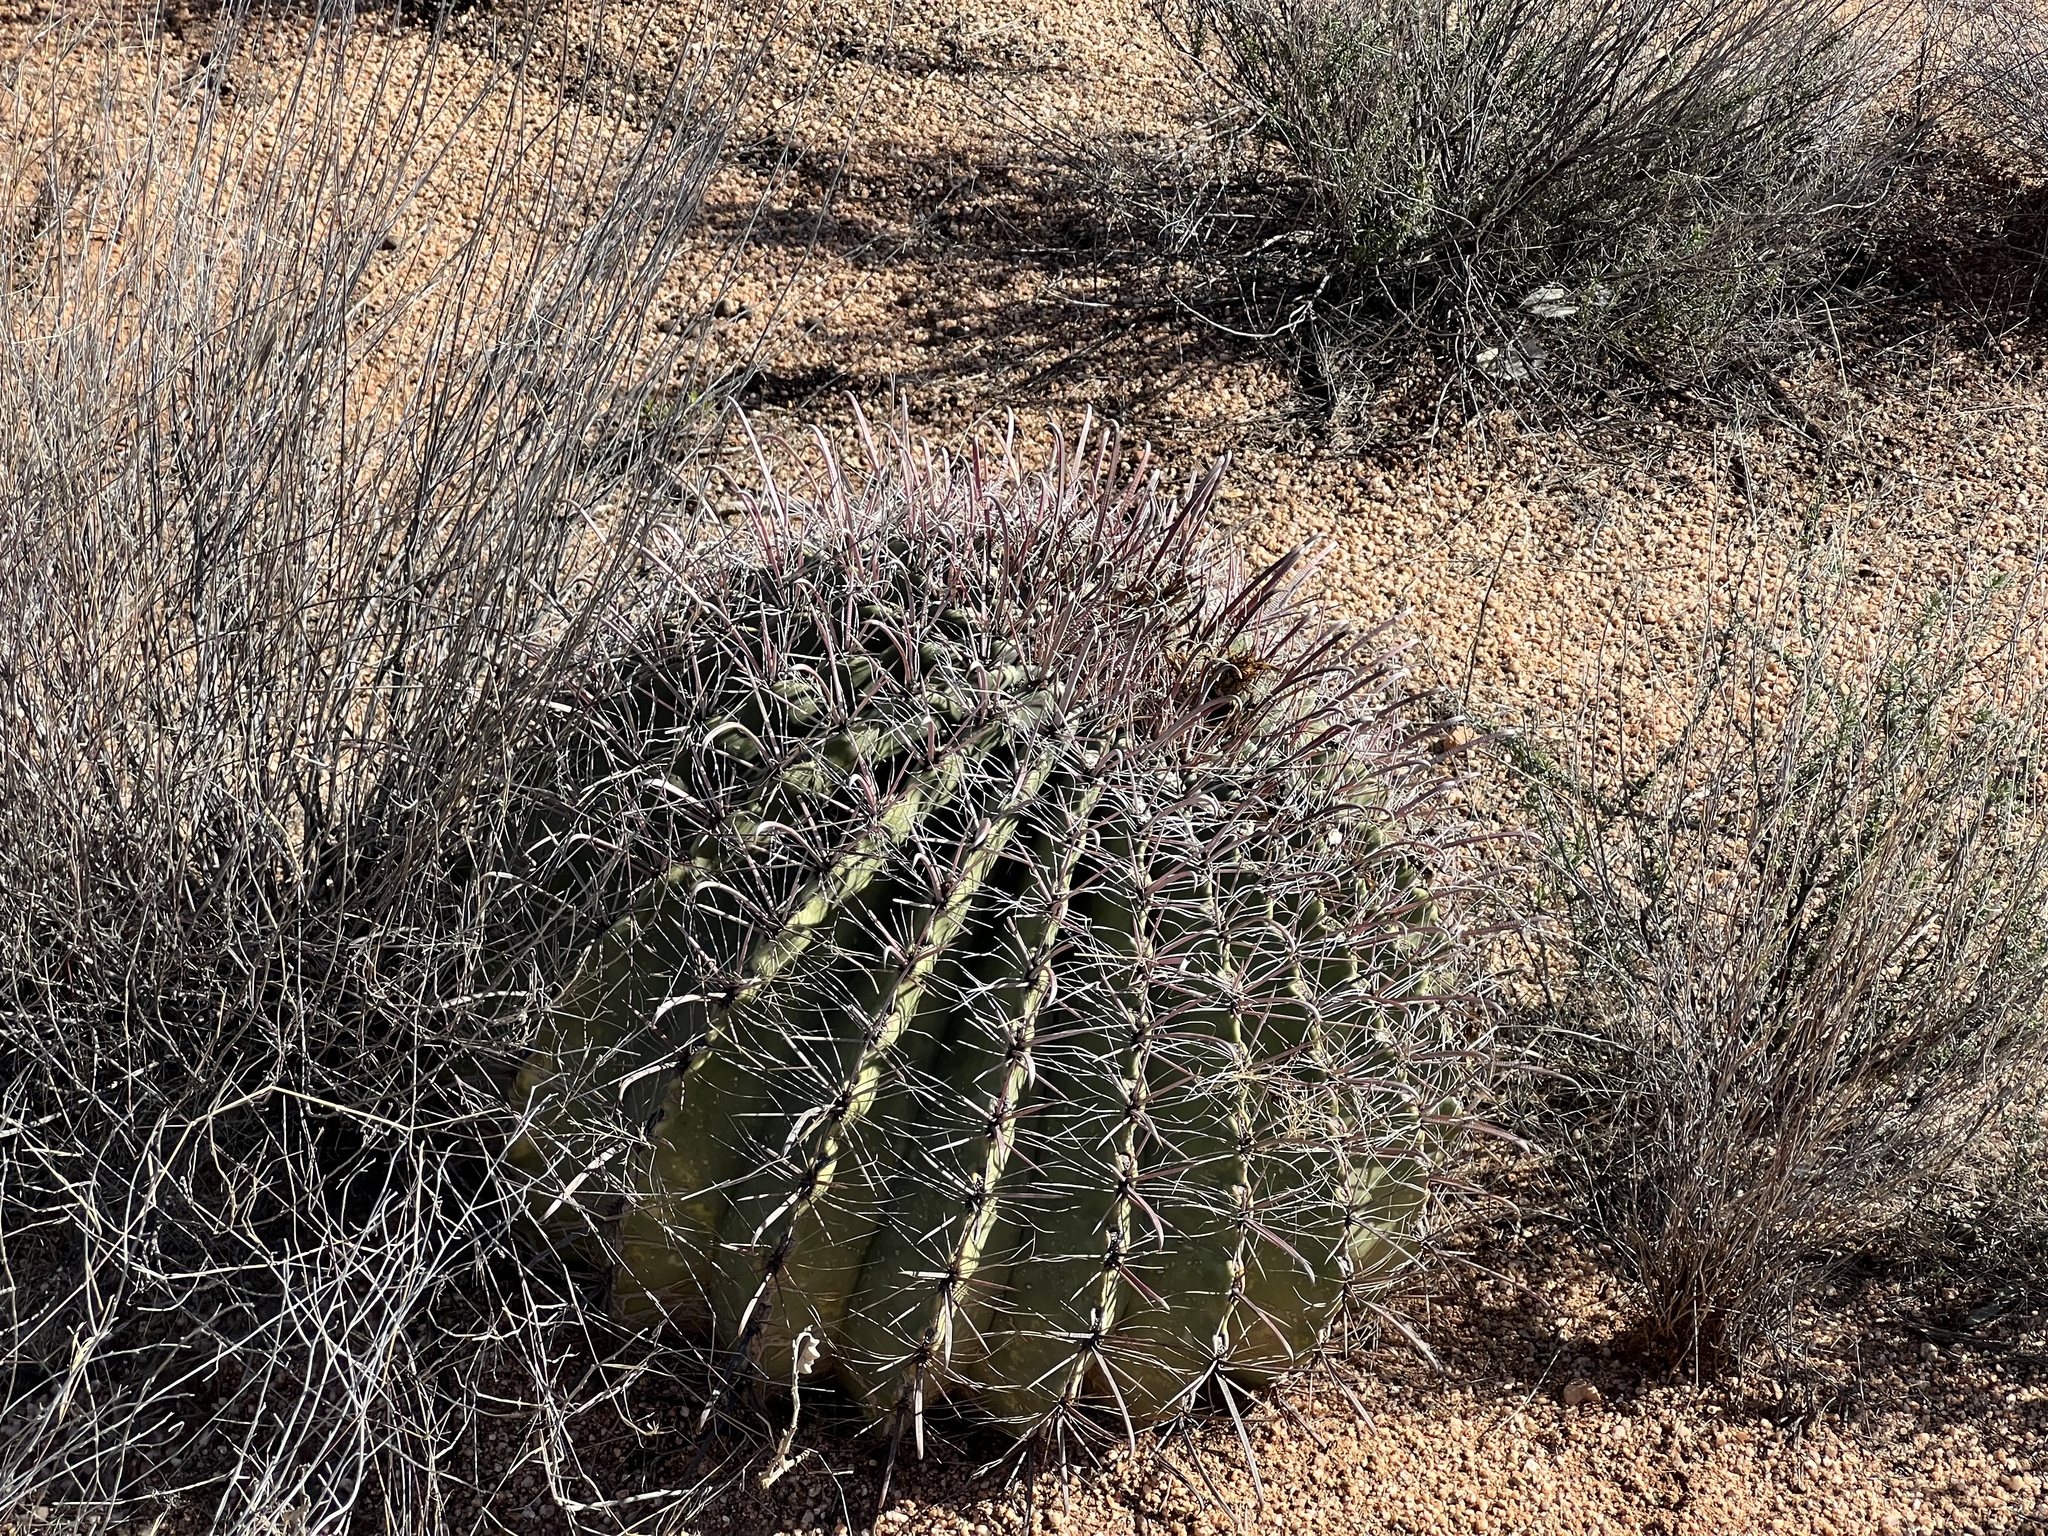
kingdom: Plantae
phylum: Tracheophyta
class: Magnoliopsida
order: Caryophyllales
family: Cactaceae
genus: Ferocactus
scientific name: Ferocactus wislizeni
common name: Candy barrel cactus
